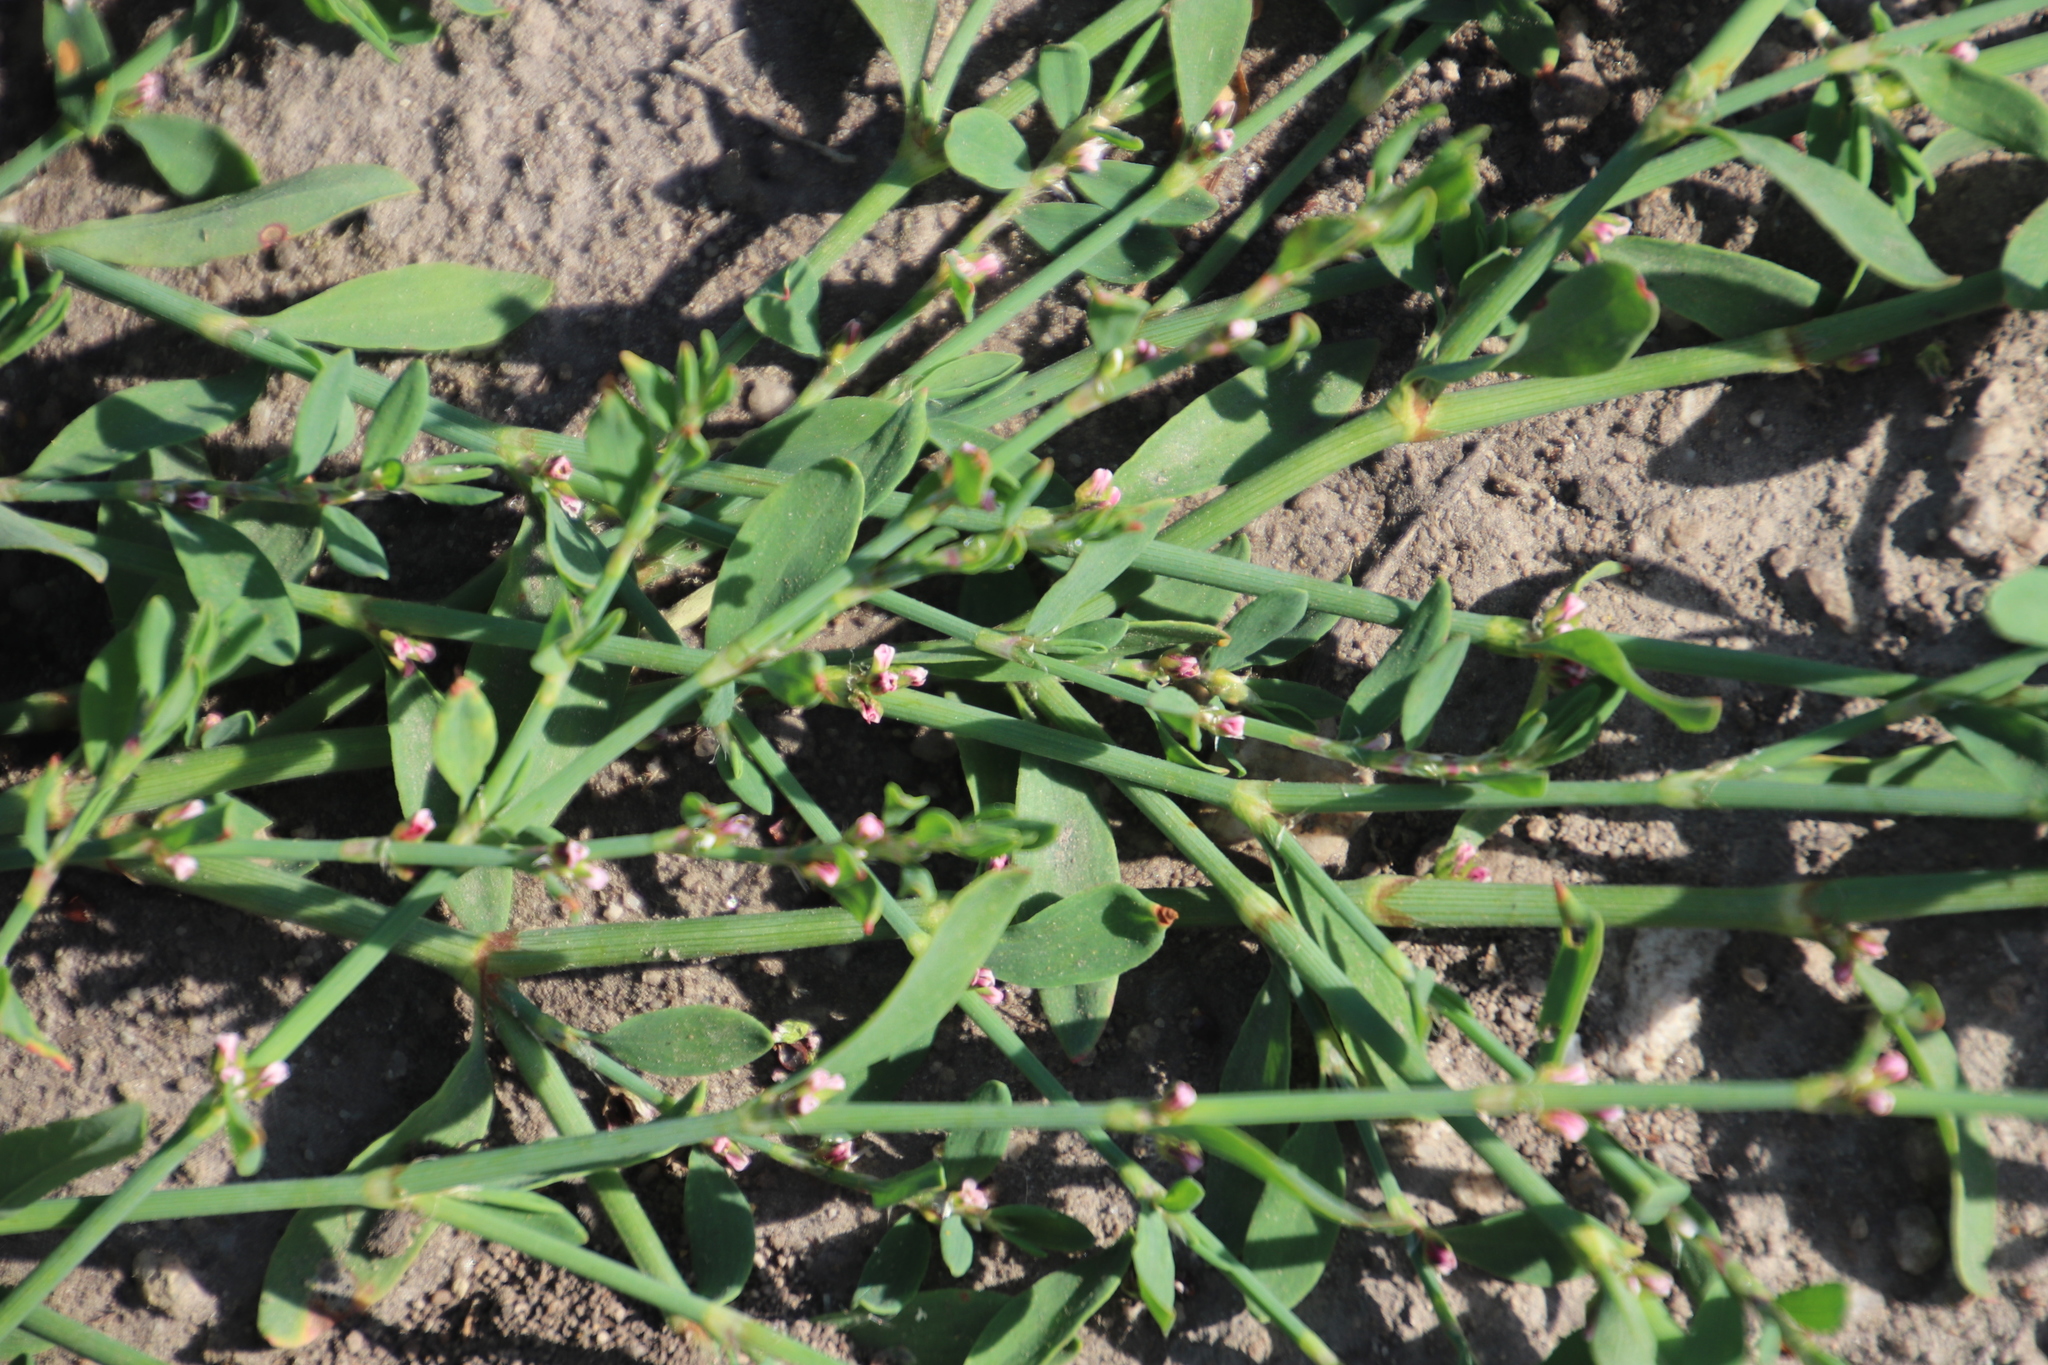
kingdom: Plantae
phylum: Tracheophyta
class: Magnoliopsida
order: Caryophyllales
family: Polygonaceae
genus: Polygonum
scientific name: Polygonum aviculare
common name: Prostrate knotweed
